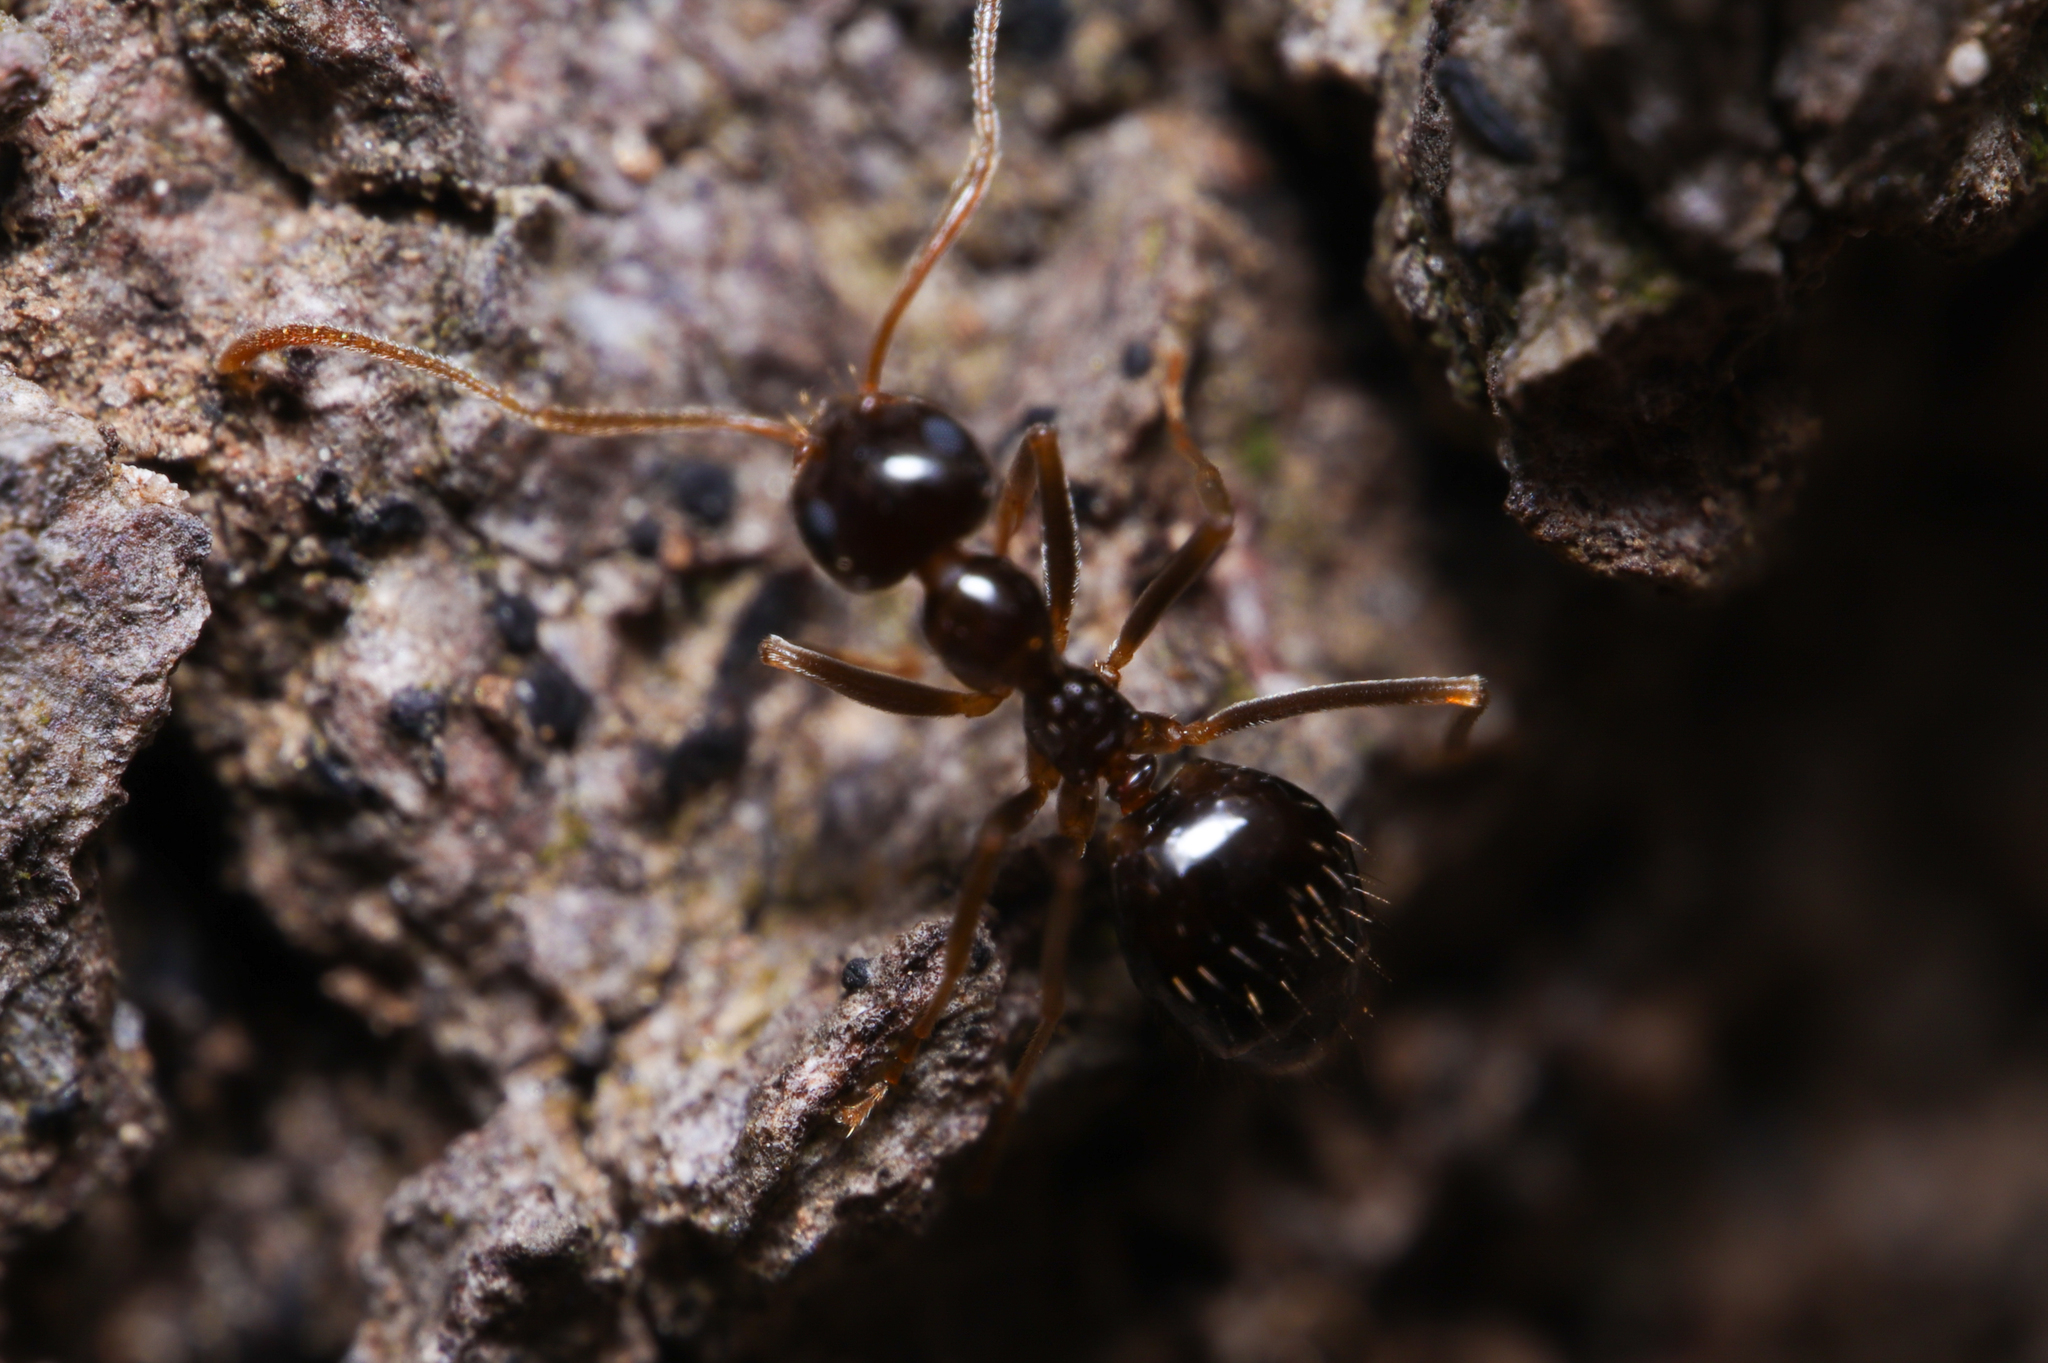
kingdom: Animalia
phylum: Arthropoda
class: Insecta
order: Hymenoptera
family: Formicidae
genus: Prenolepis
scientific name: Prenolepis imparis
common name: Small honey ant
